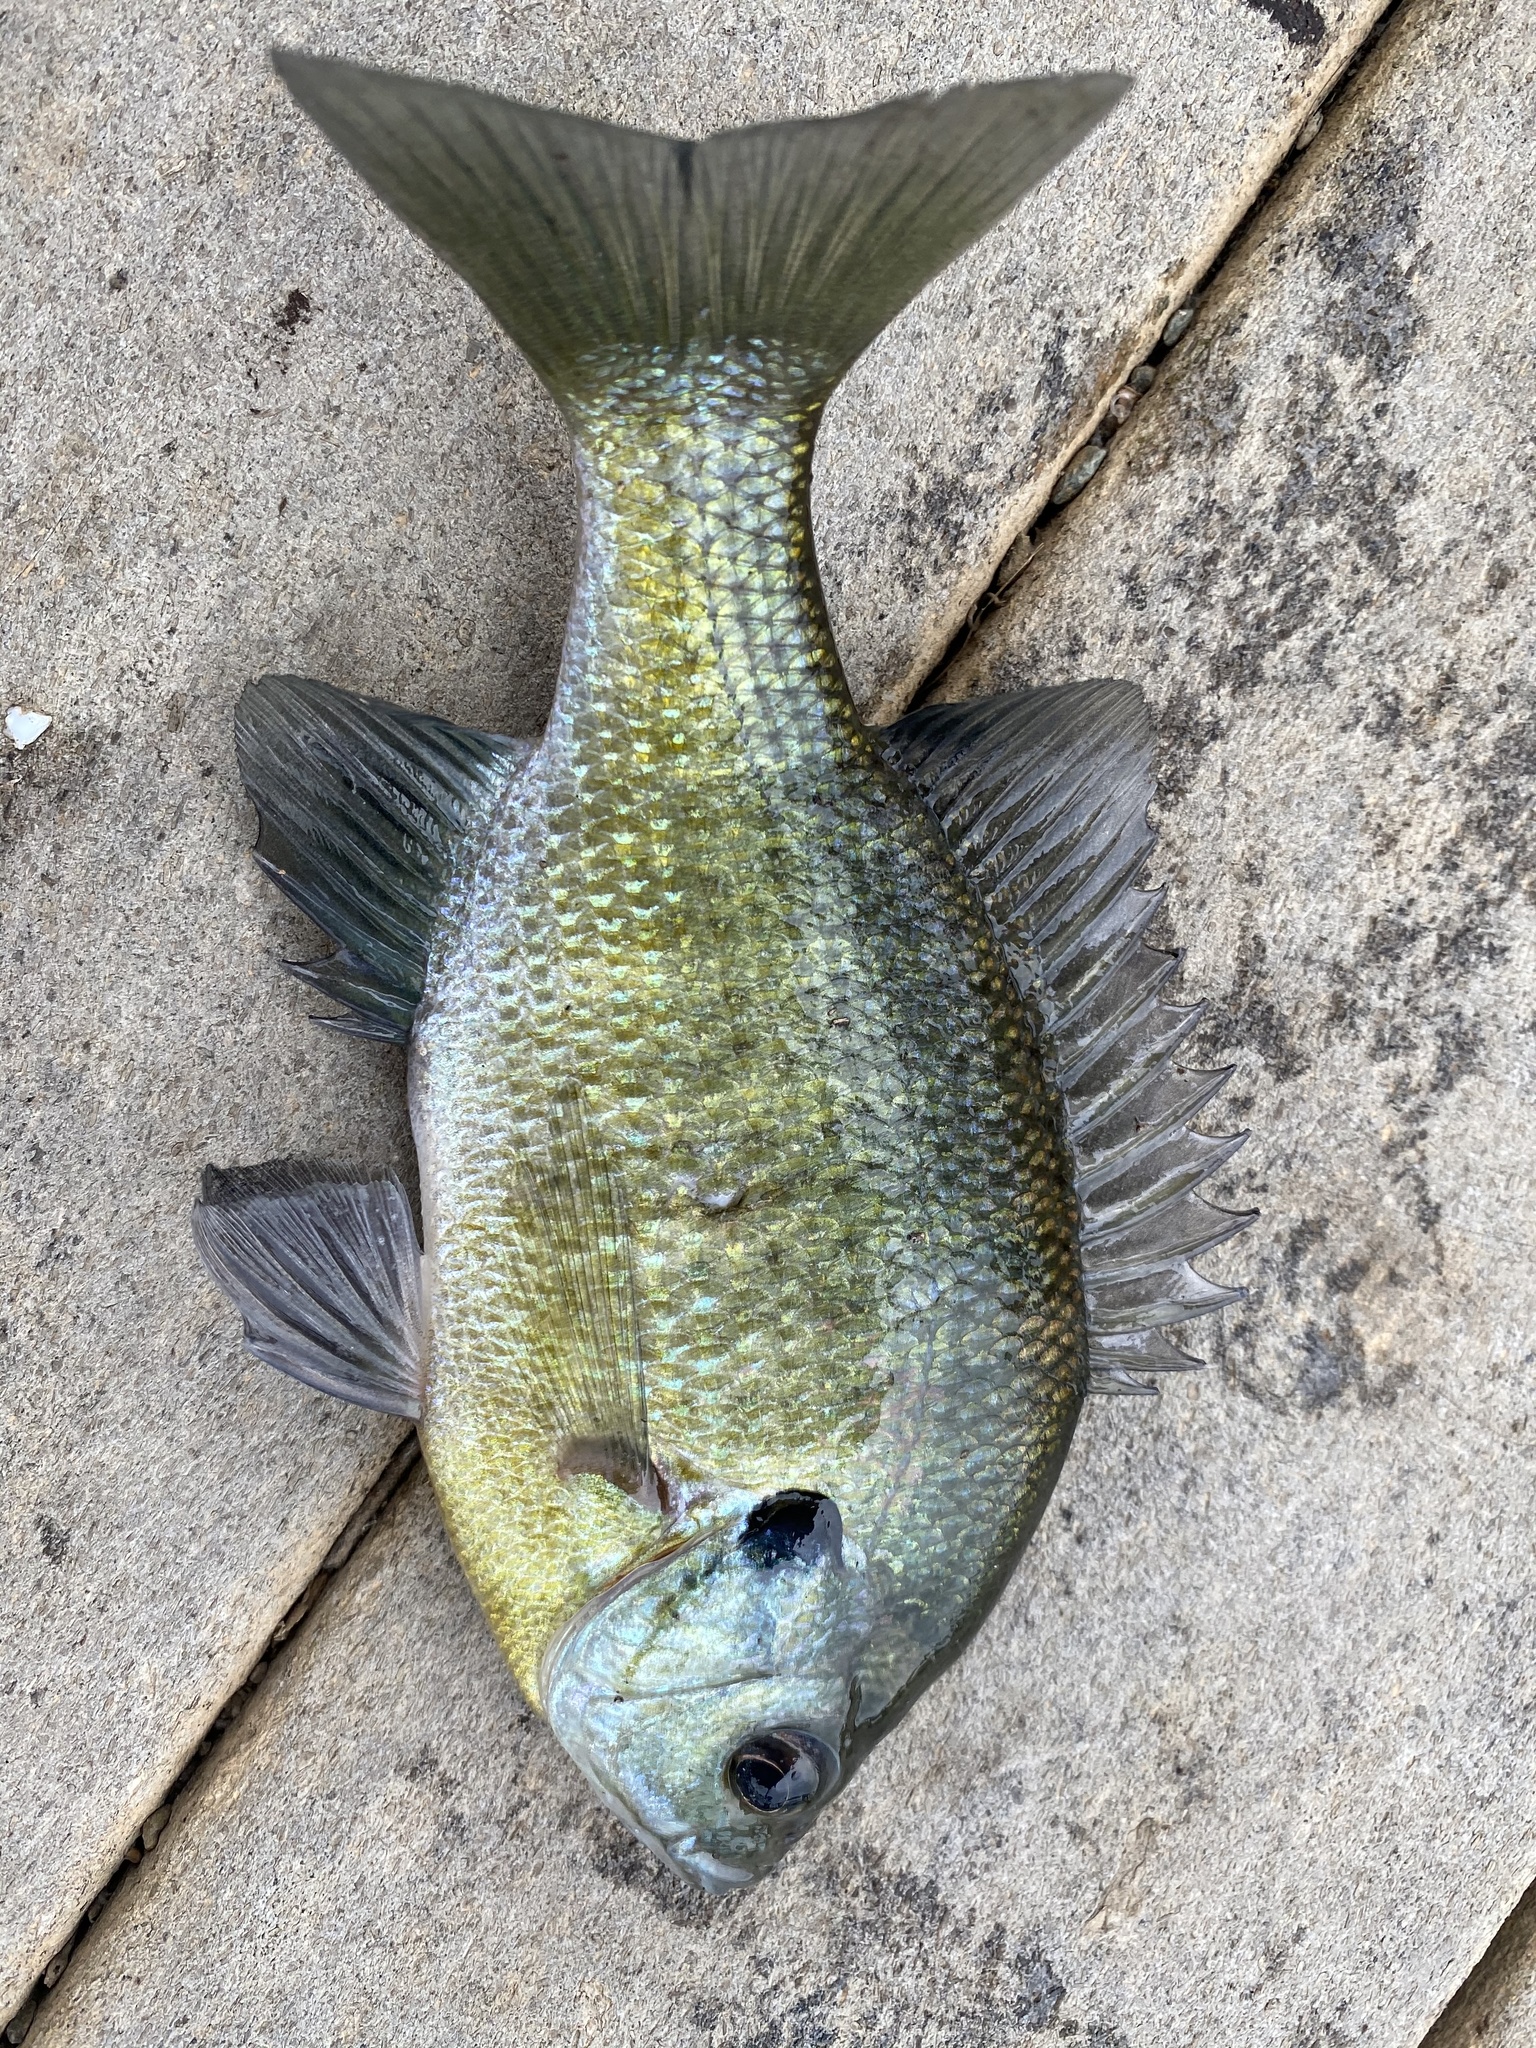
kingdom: Animalia
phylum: Chordata
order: Perciformes
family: Centrarchidae
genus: Lepomis
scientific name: Lepomis macrochirus
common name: Bluegill
